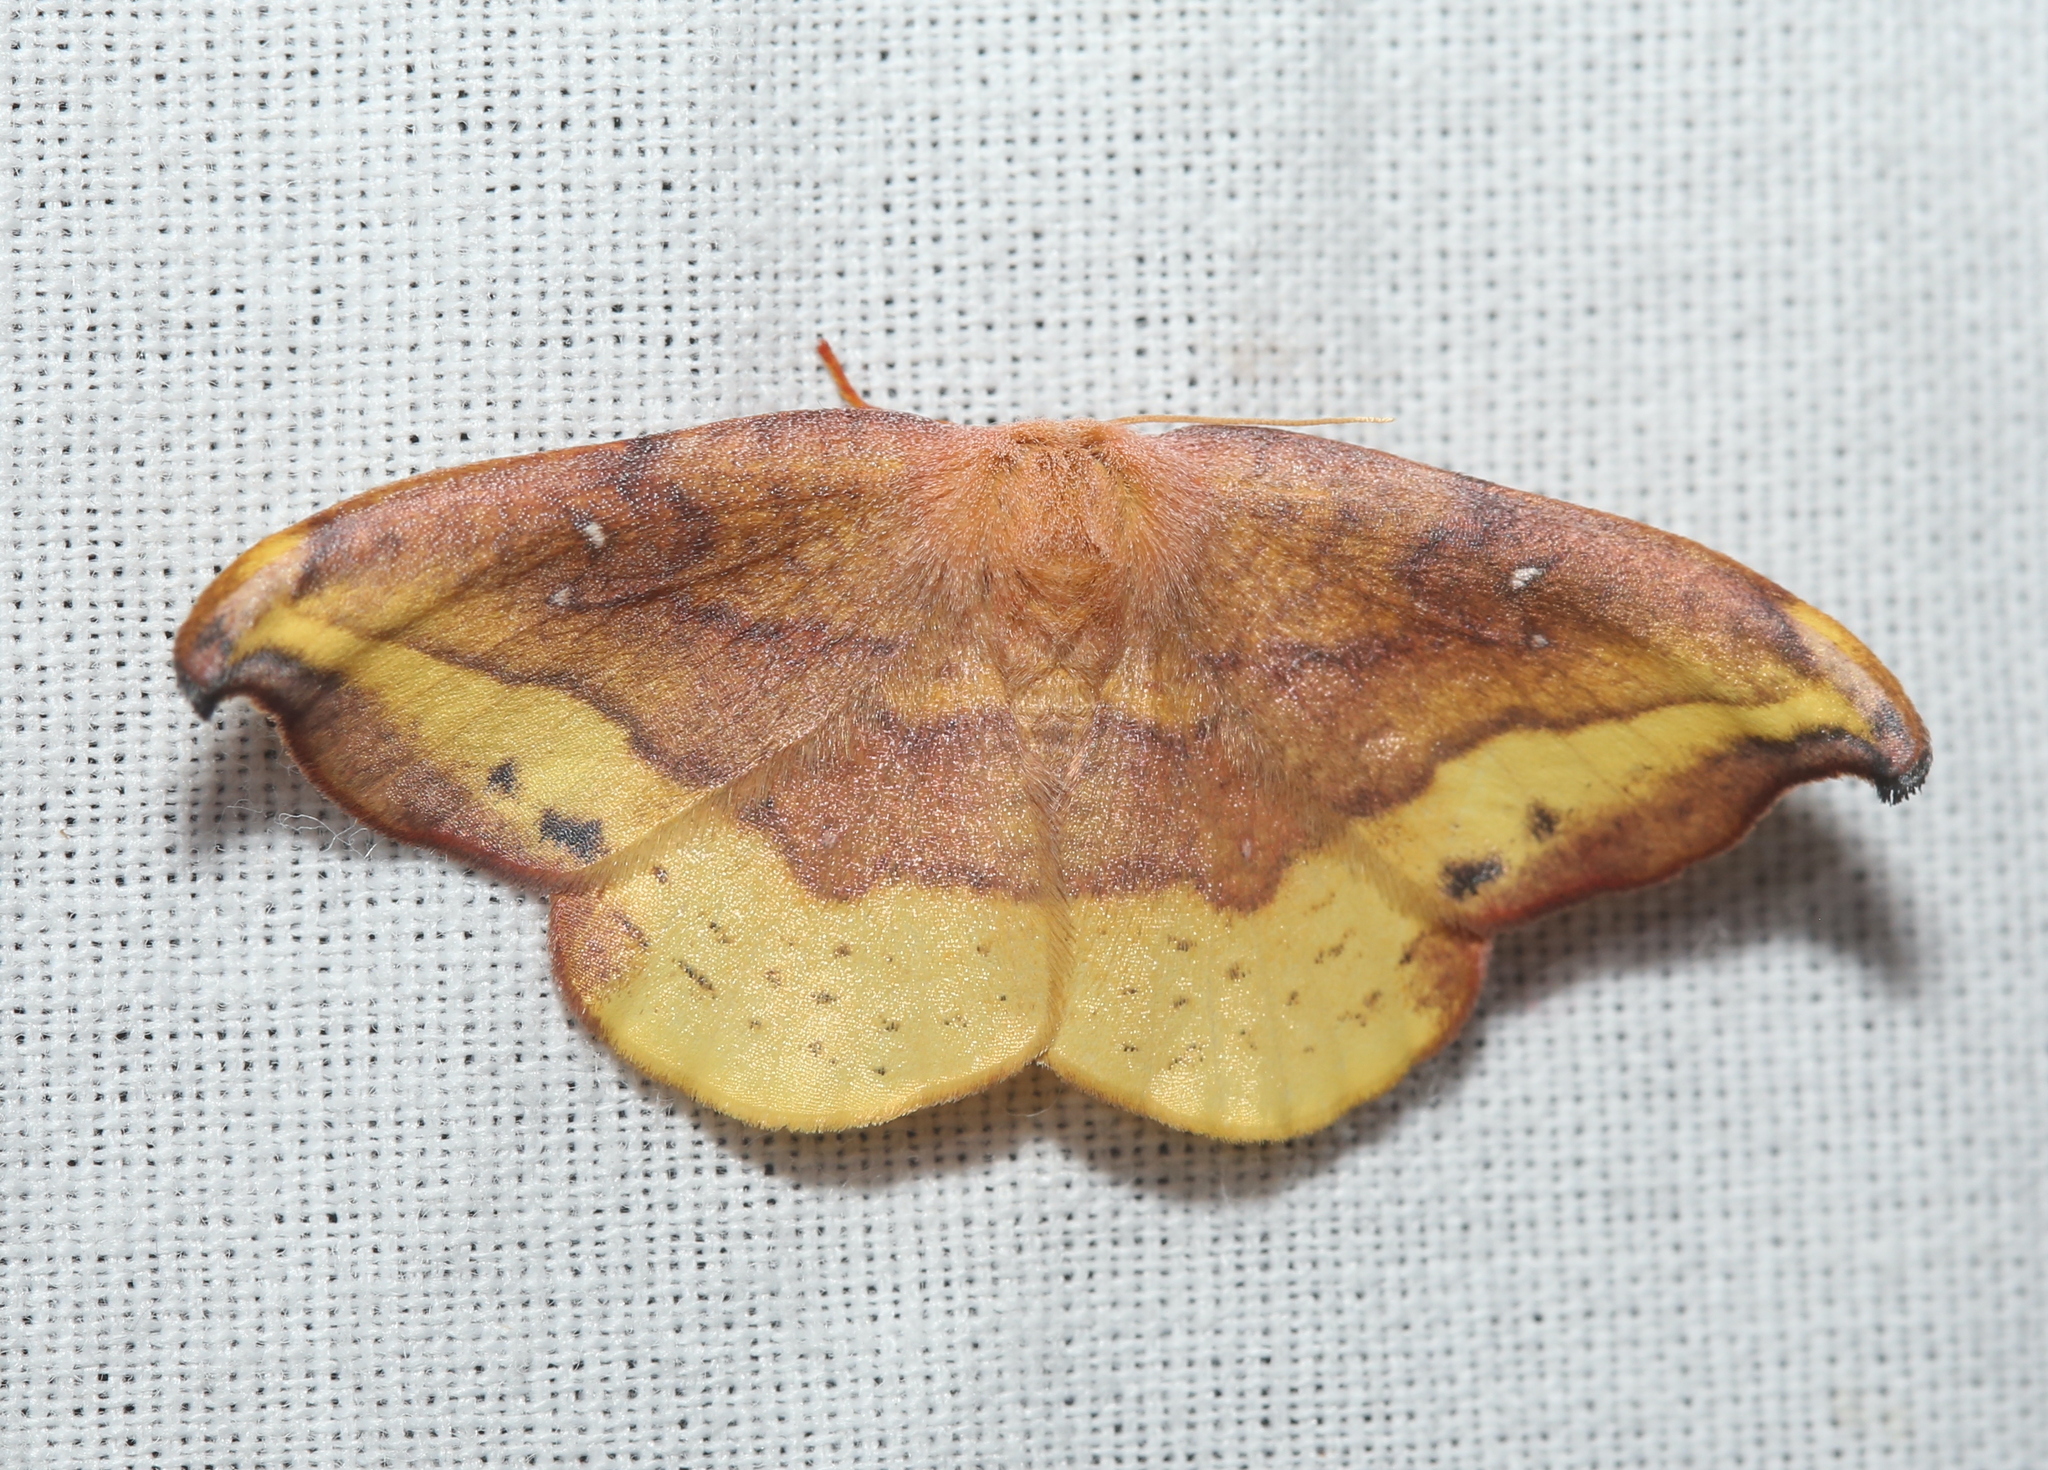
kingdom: Animalia
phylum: Arthropoda
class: Insecta
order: Lepidoptera
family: Drepanidae
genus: Oreta
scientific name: Oreta rosea
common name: Rose hooktip
